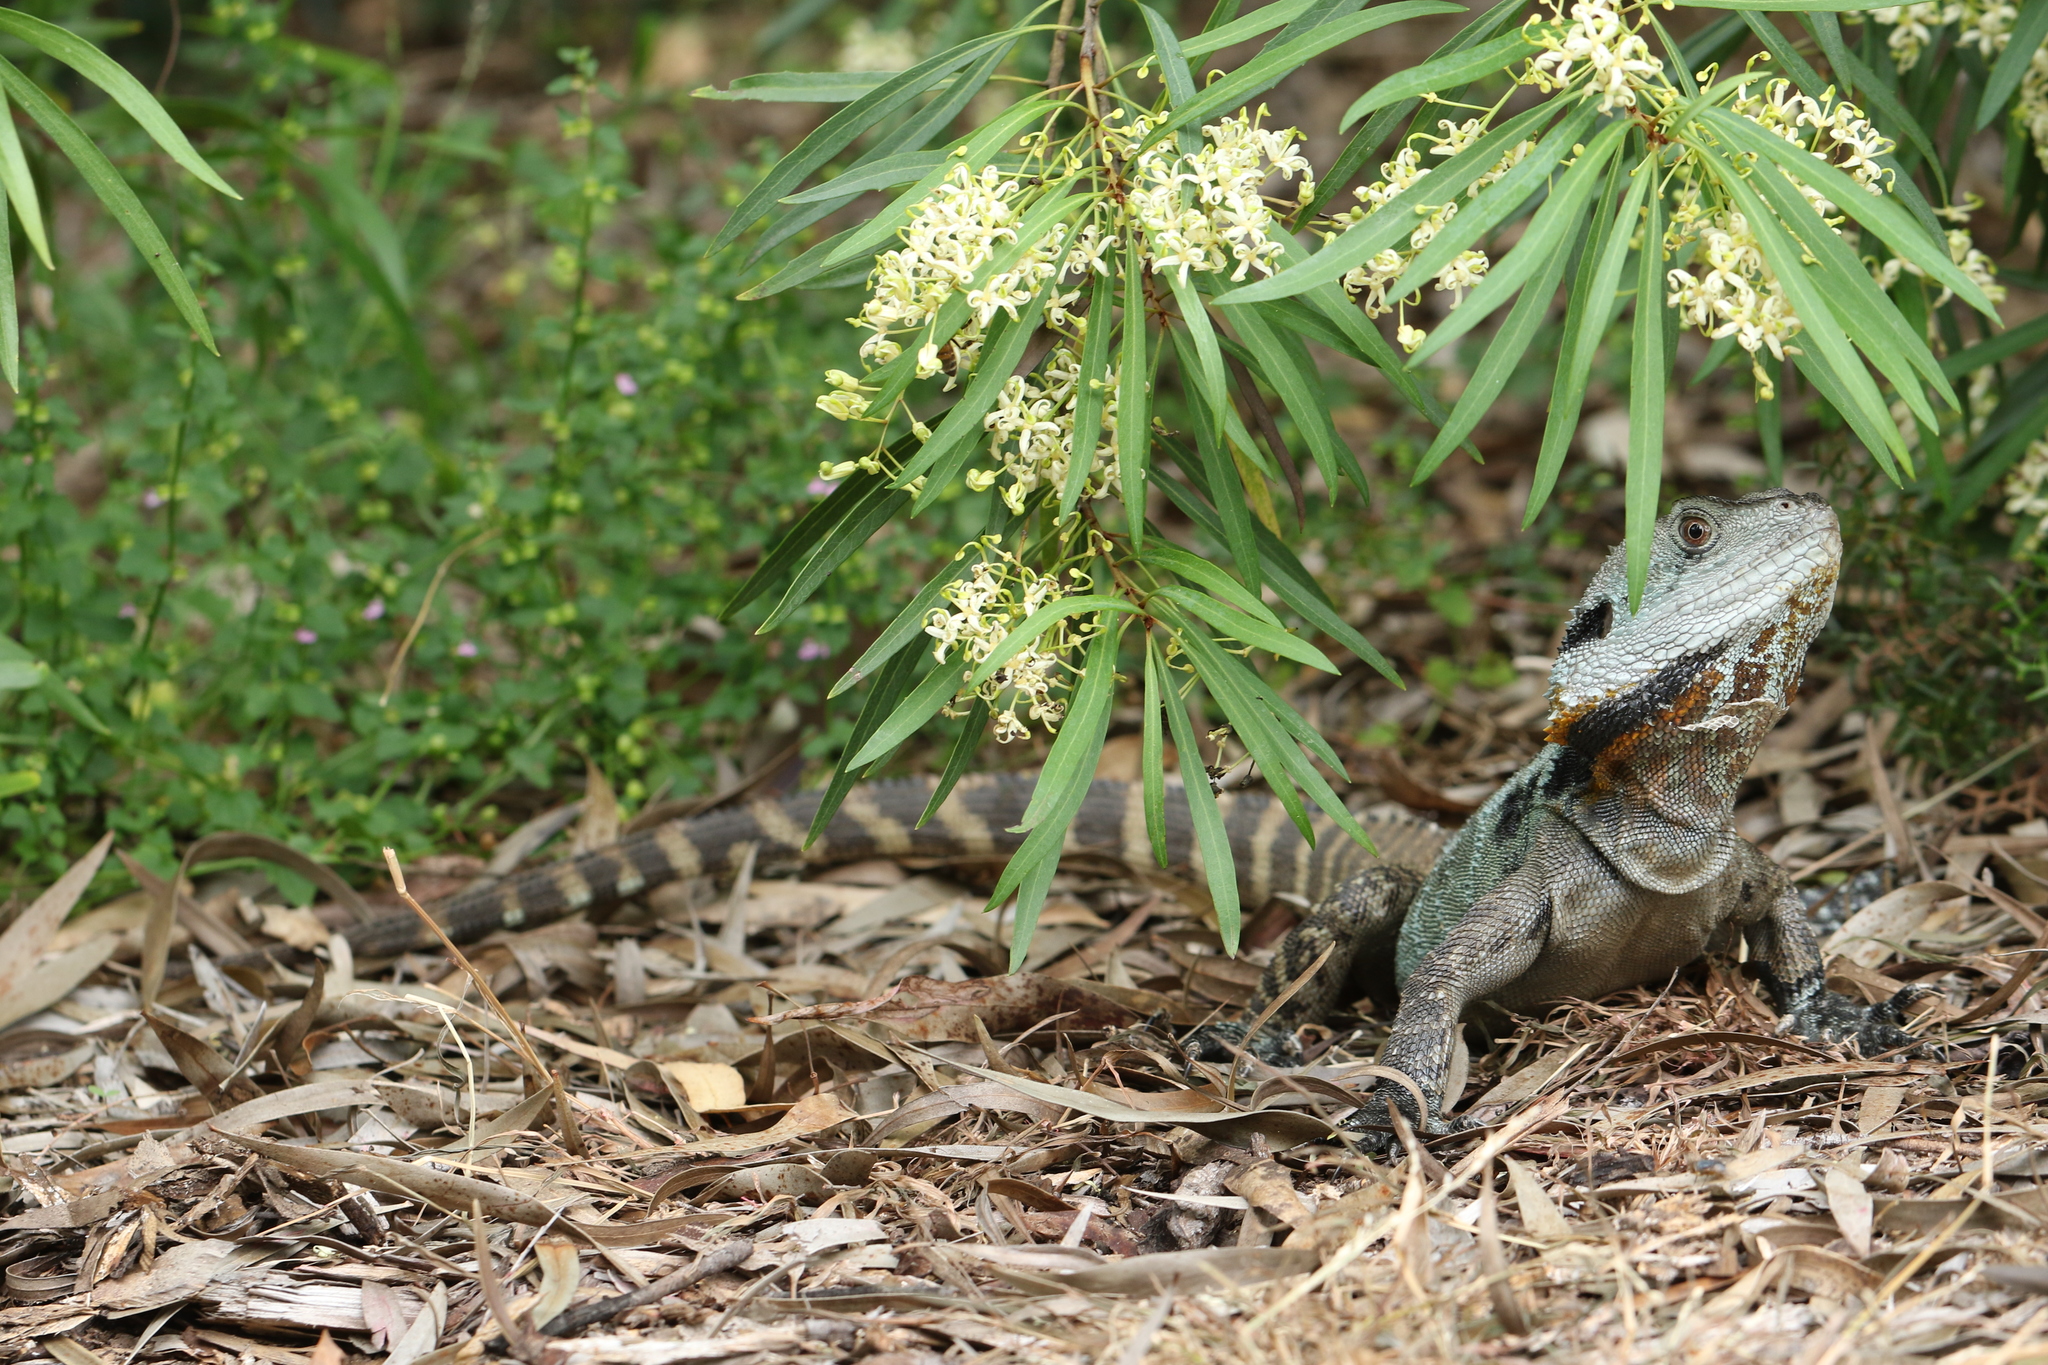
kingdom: Animalia
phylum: Chordata
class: Squamata
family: Agamidae
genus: Intellagama
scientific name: Intellagama lesueurii
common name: Eastern water dragon
